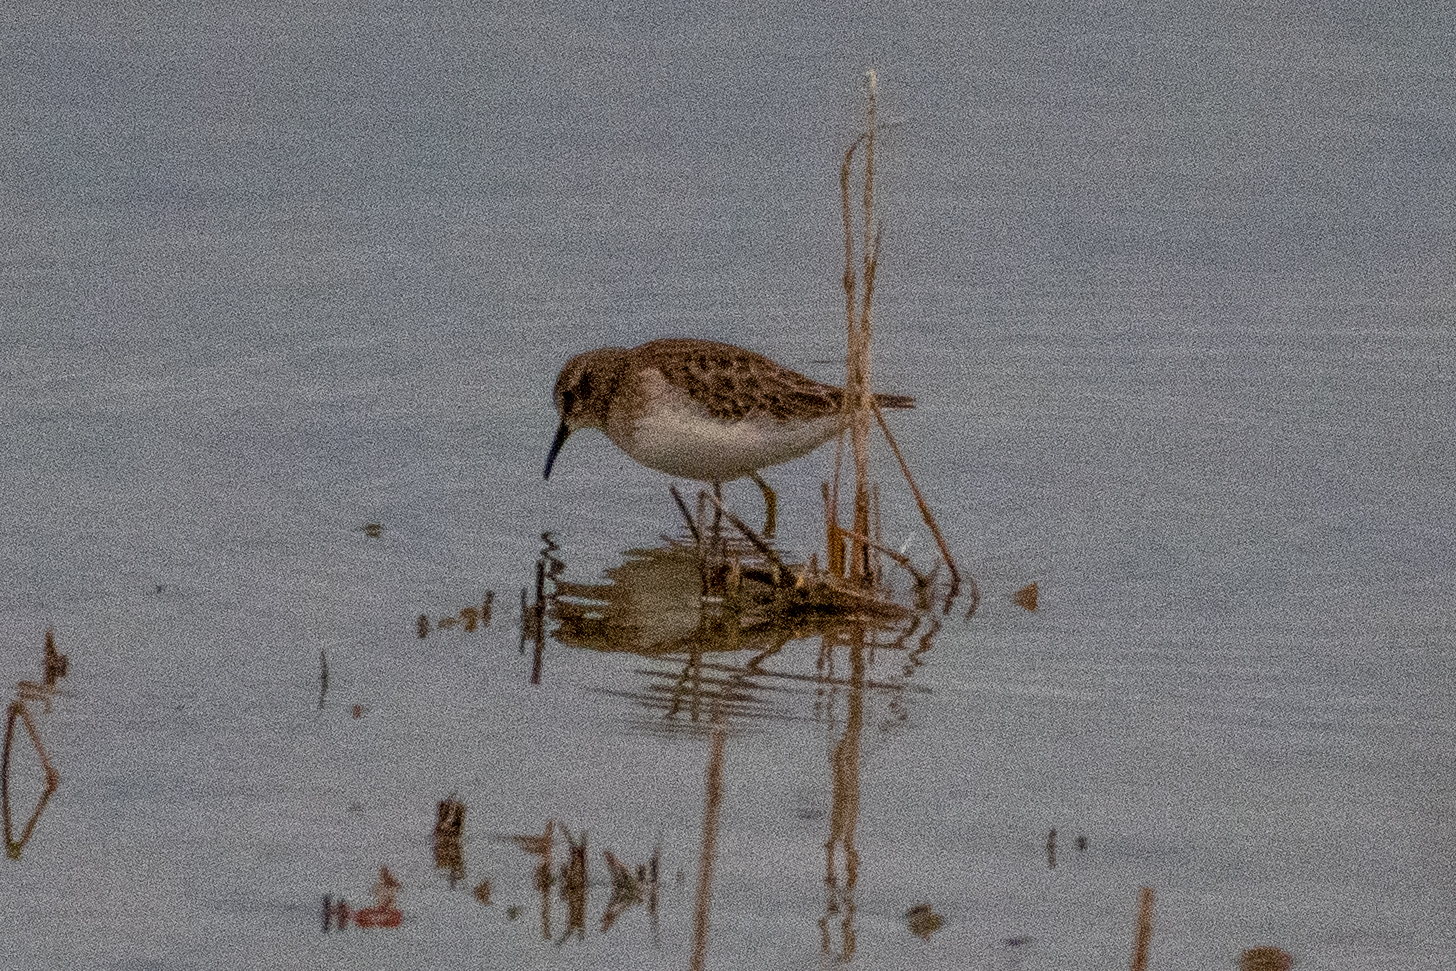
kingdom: Animalia
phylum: Chordata
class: Aves
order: Charadriiformes
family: Scolopacidae
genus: Calidris
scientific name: Calidris minutilla
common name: Least sandpiper
